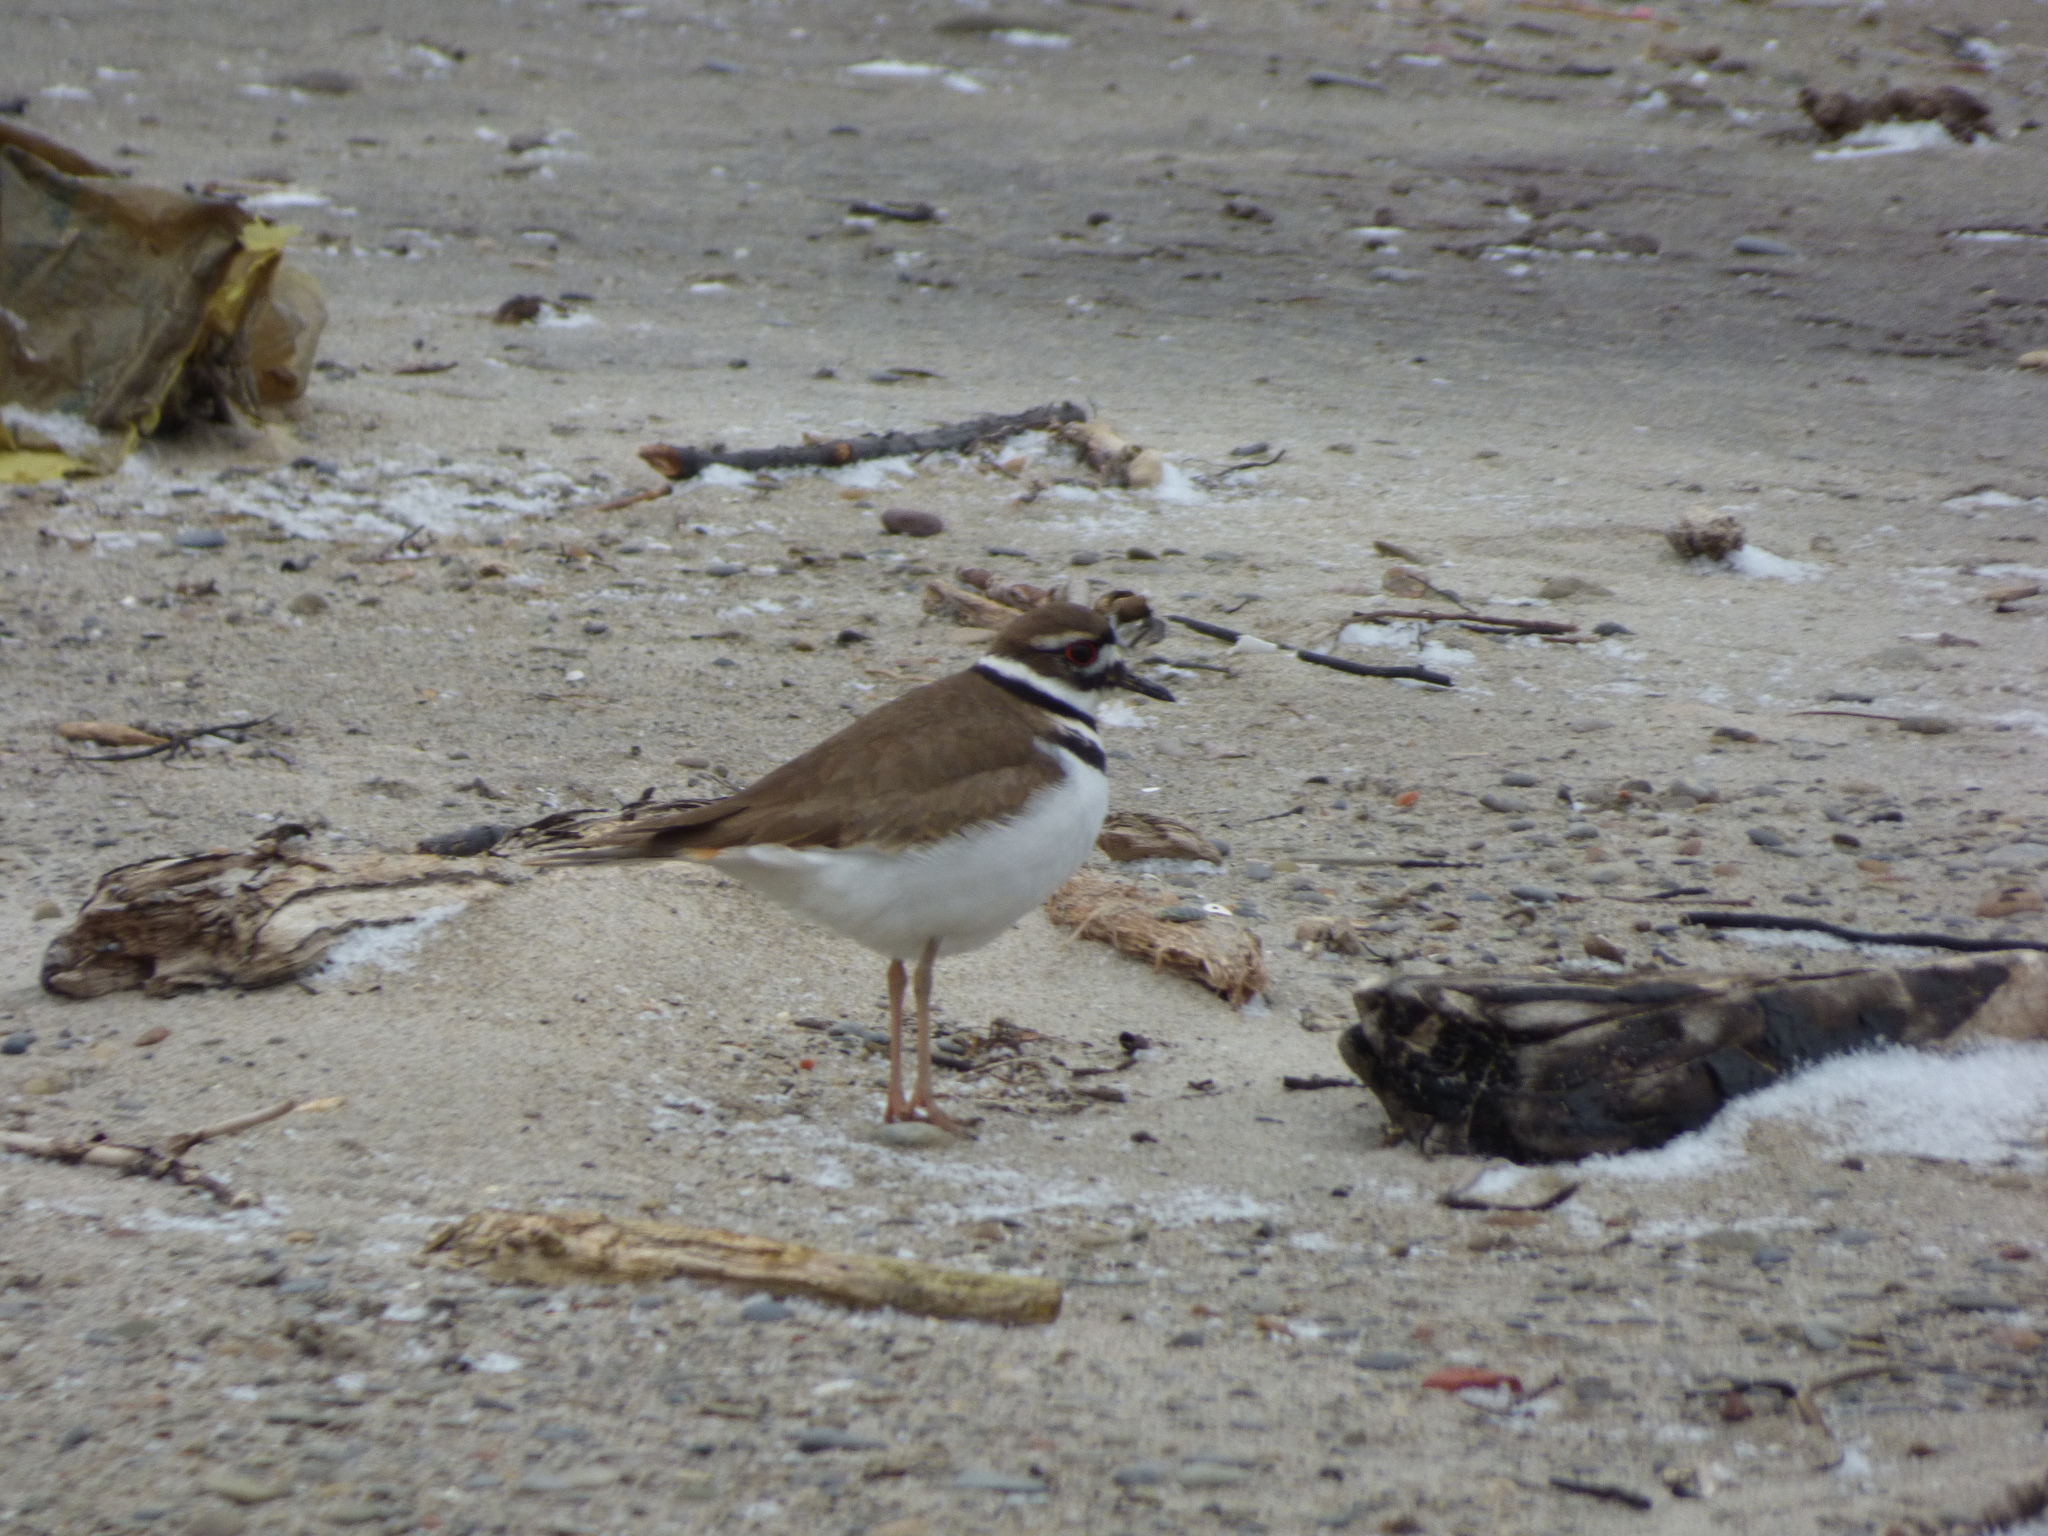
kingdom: Animalia
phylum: Chordata
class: Aves
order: Charadriiformes
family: Charadriidae
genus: Charadrius
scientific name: Charadrius vociferus
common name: Killdeer
